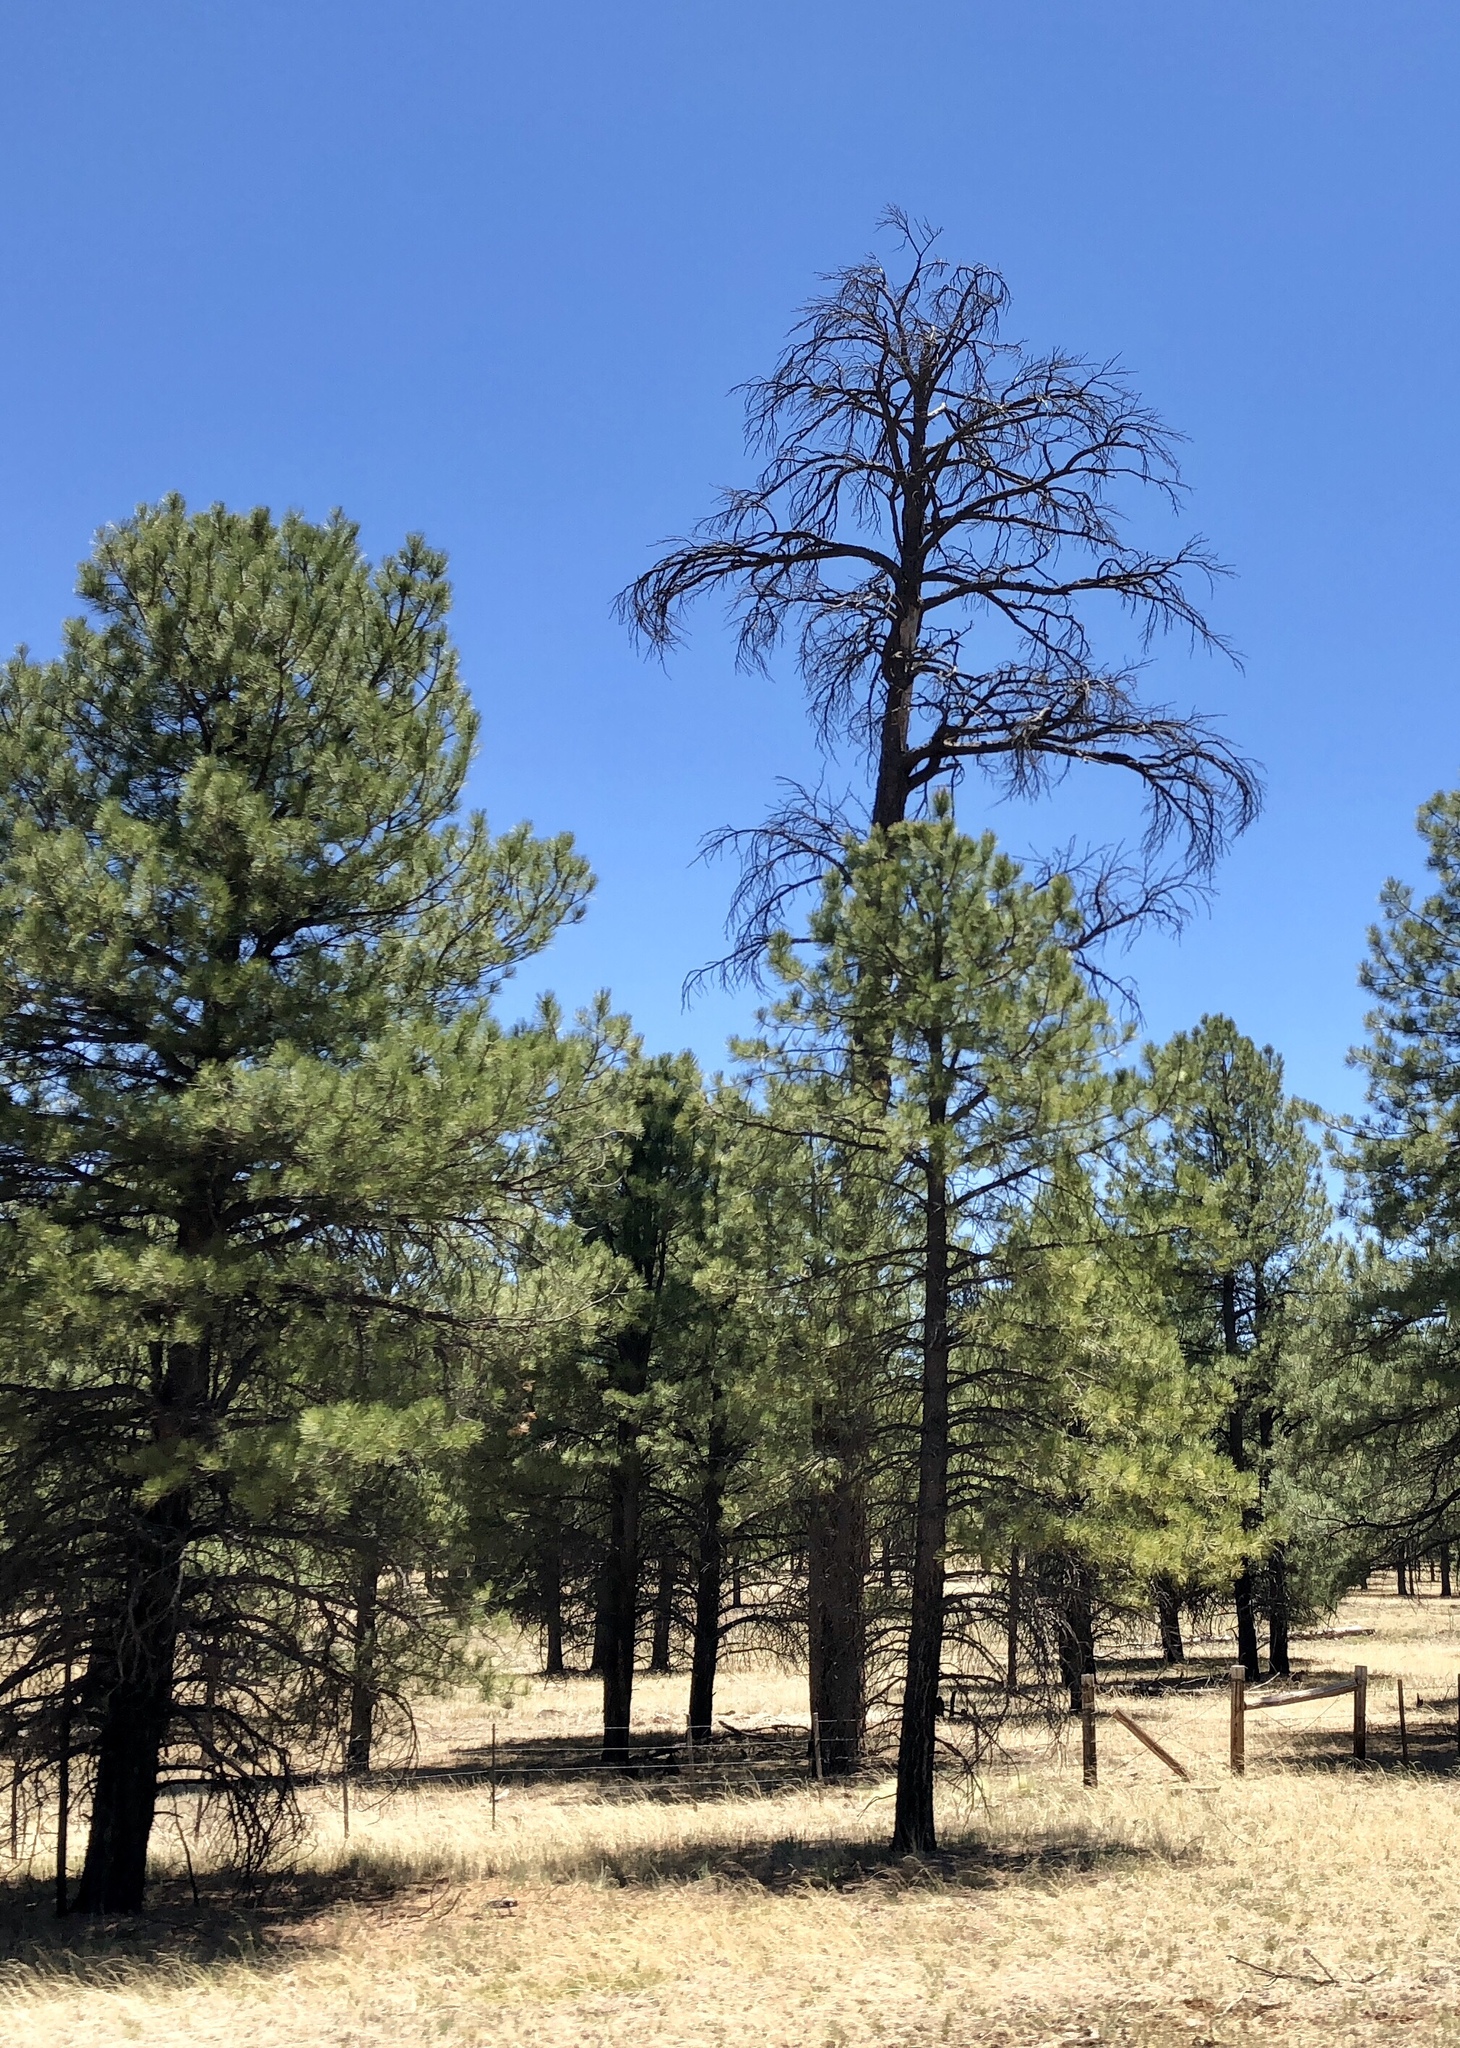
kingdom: Plantae
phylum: Tracheophyta
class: Pinopsida
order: Pinales
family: Pinaceae
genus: Pinus
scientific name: Pinus ponderosa
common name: Western yellow-pine
